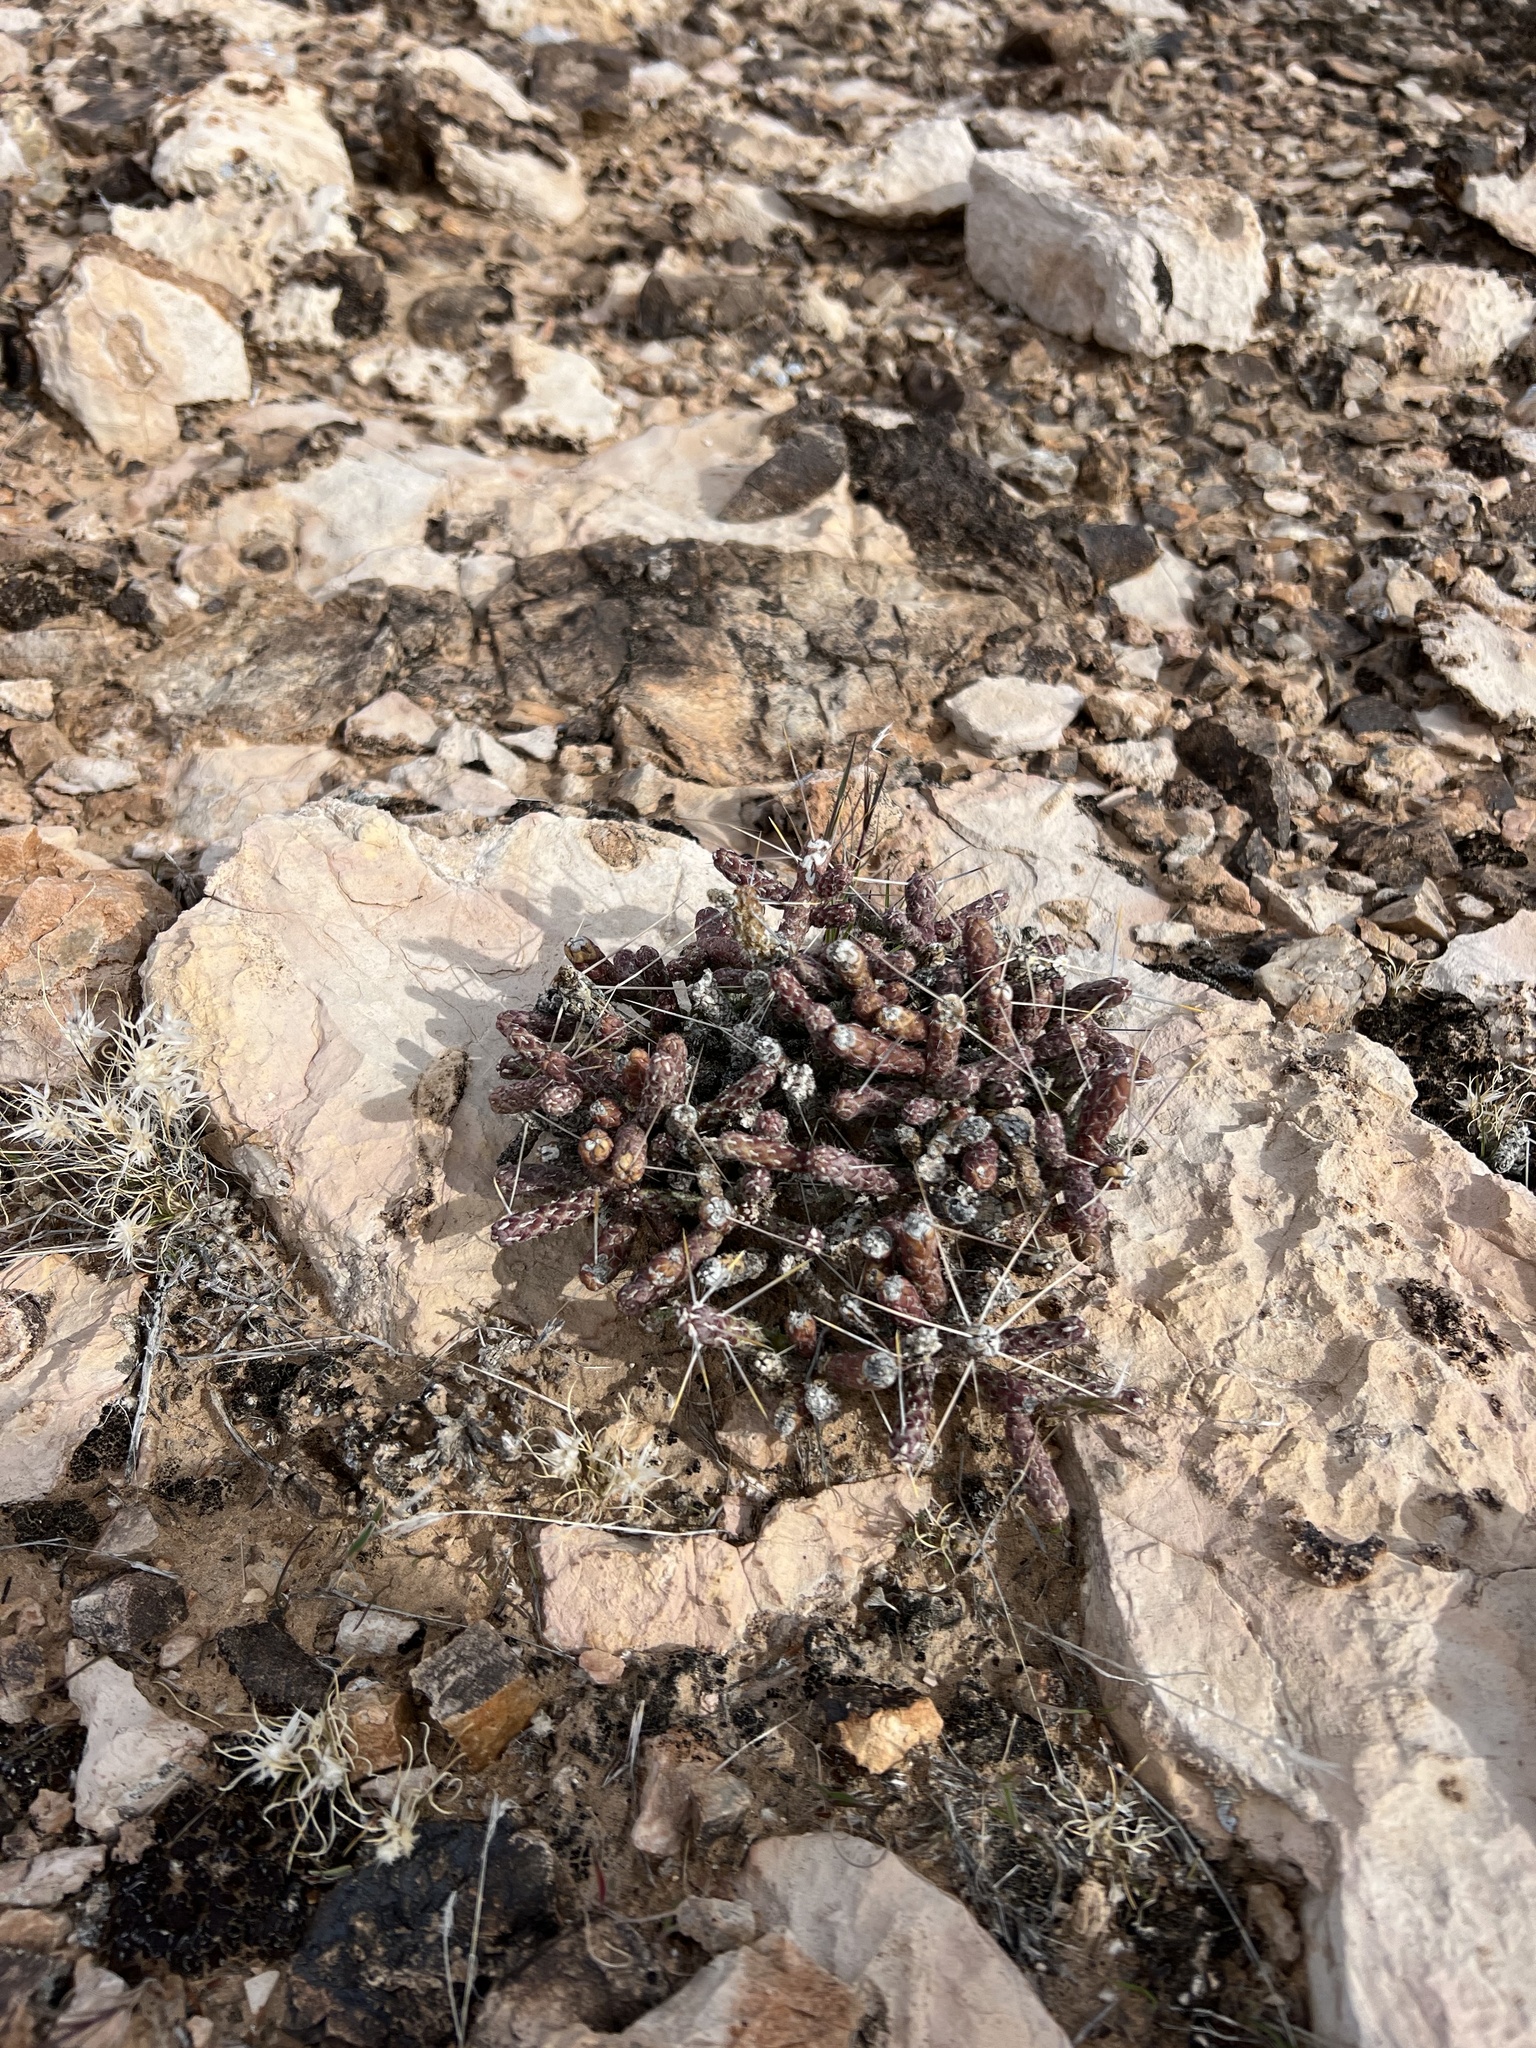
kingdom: Plantae
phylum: Tracheophyta
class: Magnoliopsida
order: Caryophyllales
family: Cactaceae
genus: Cylindropuntia
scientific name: Cylindropuntia ramosissima
